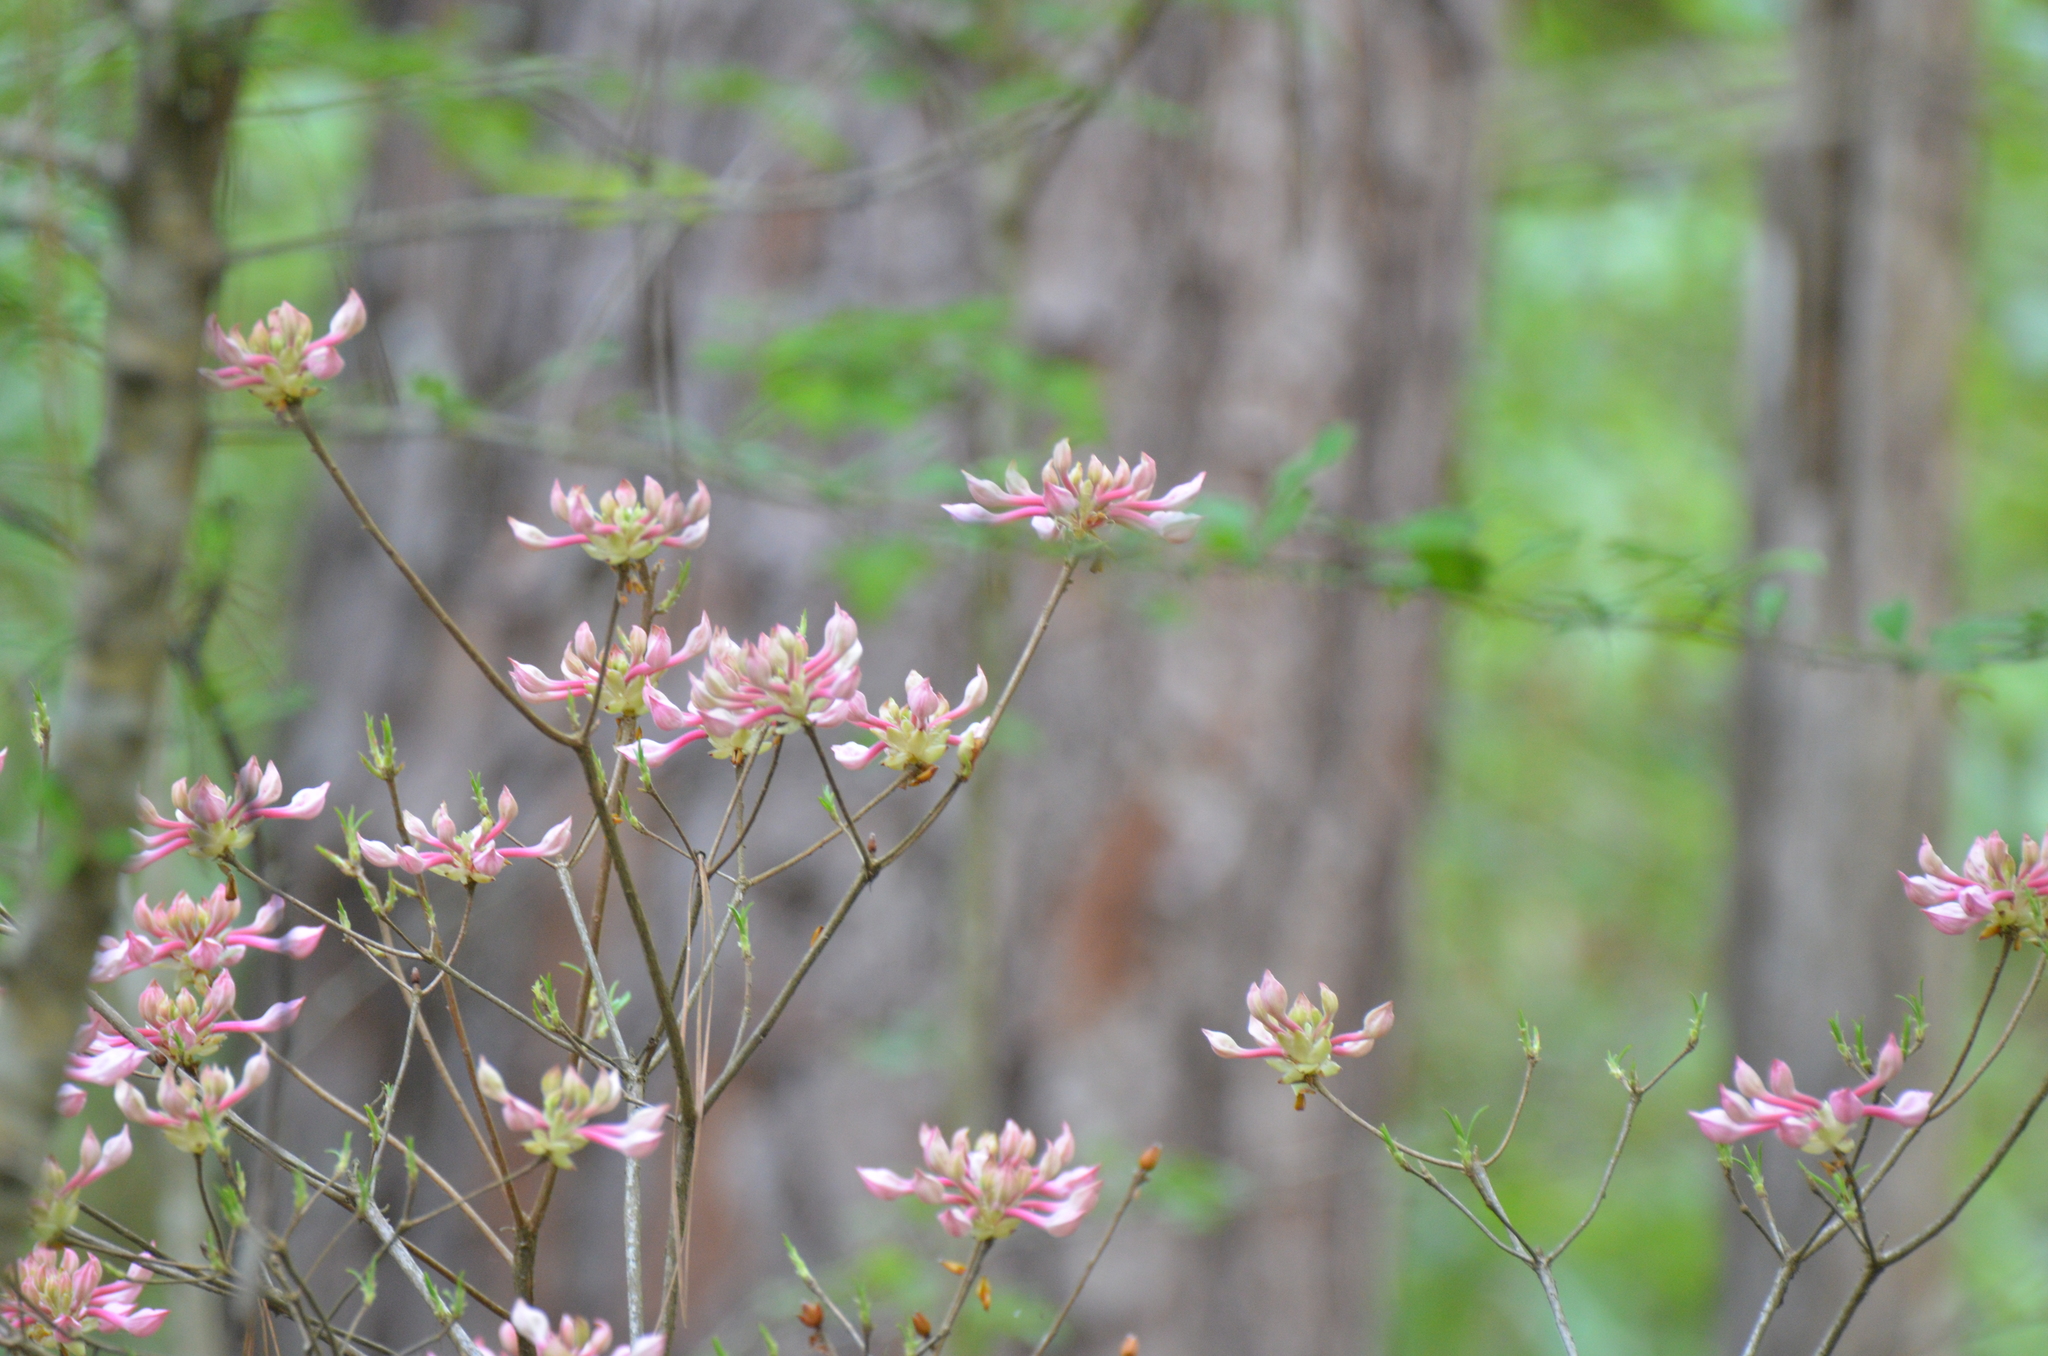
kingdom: Plantae
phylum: Tracheophyta
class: Magnoliopsida
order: Ericales
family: Ericaceae
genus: Rhododendron
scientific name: Rhododendron canescens
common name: Mountain azalea
